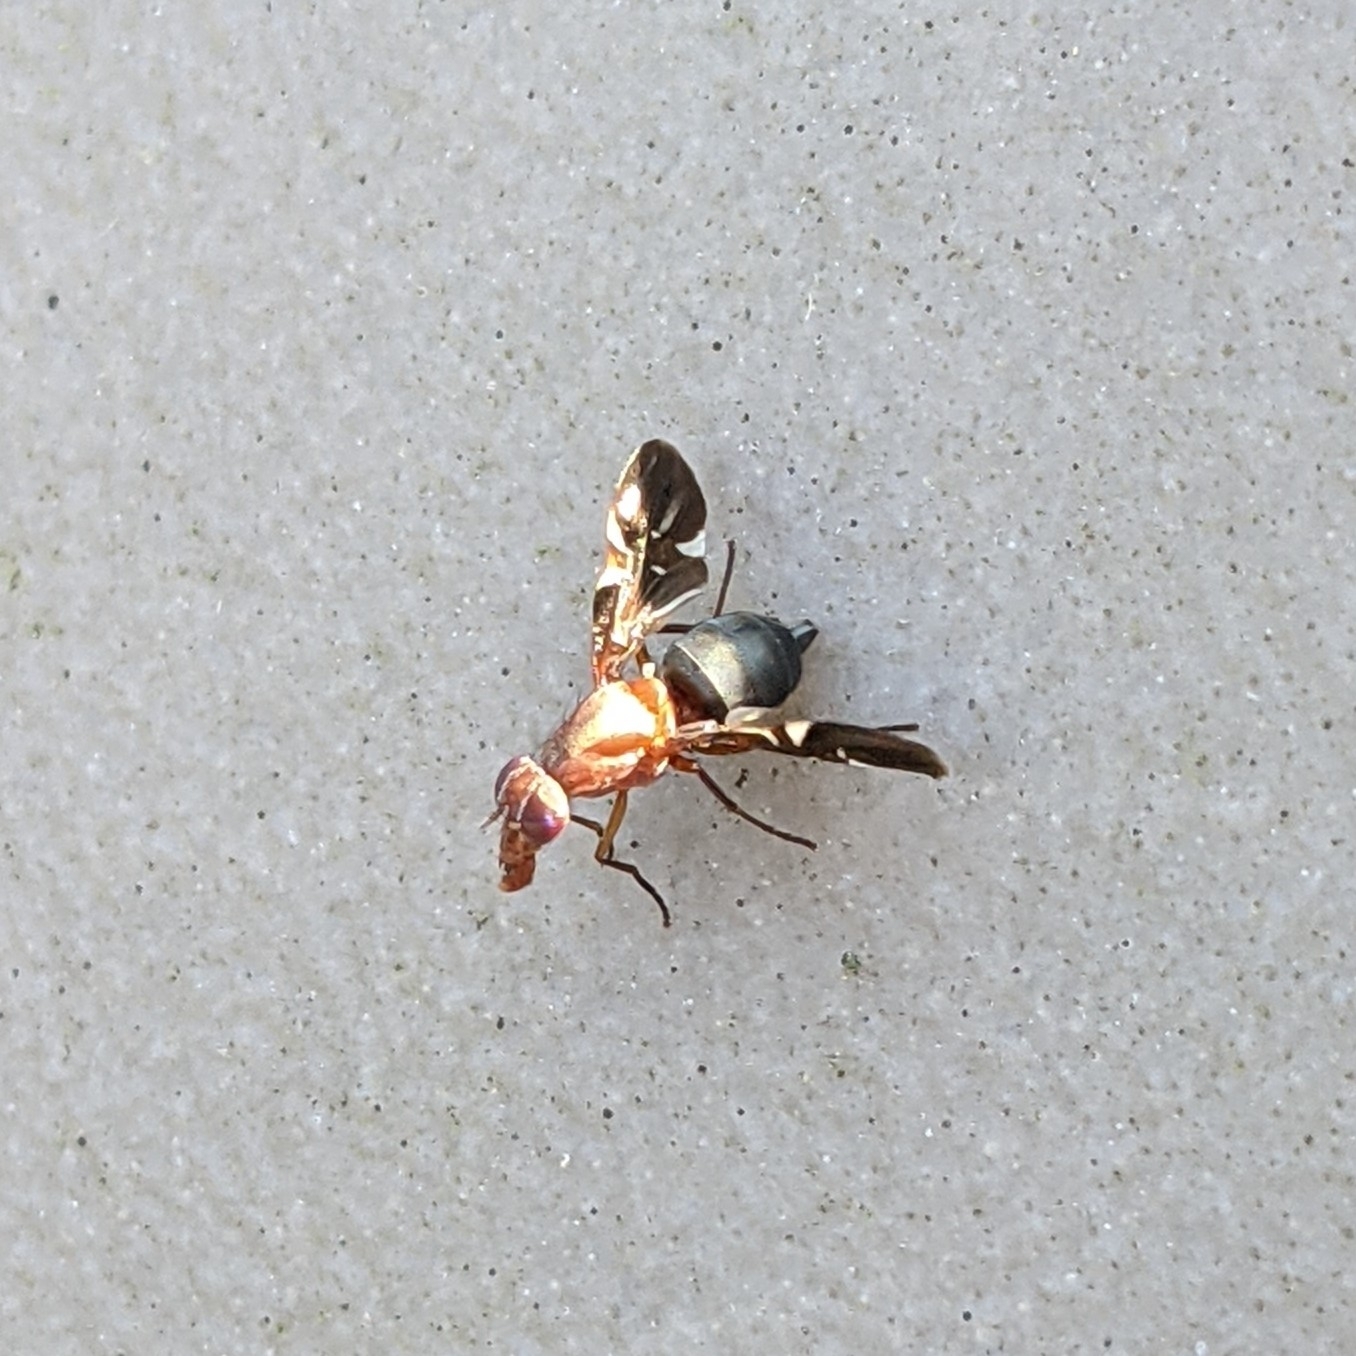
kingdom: Animalia
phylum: Arthropoda
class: Insecta
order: Diptera
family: Ulidiidae
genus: Delphinia
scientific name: Delphinia picta
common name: Common picture-winged fly
